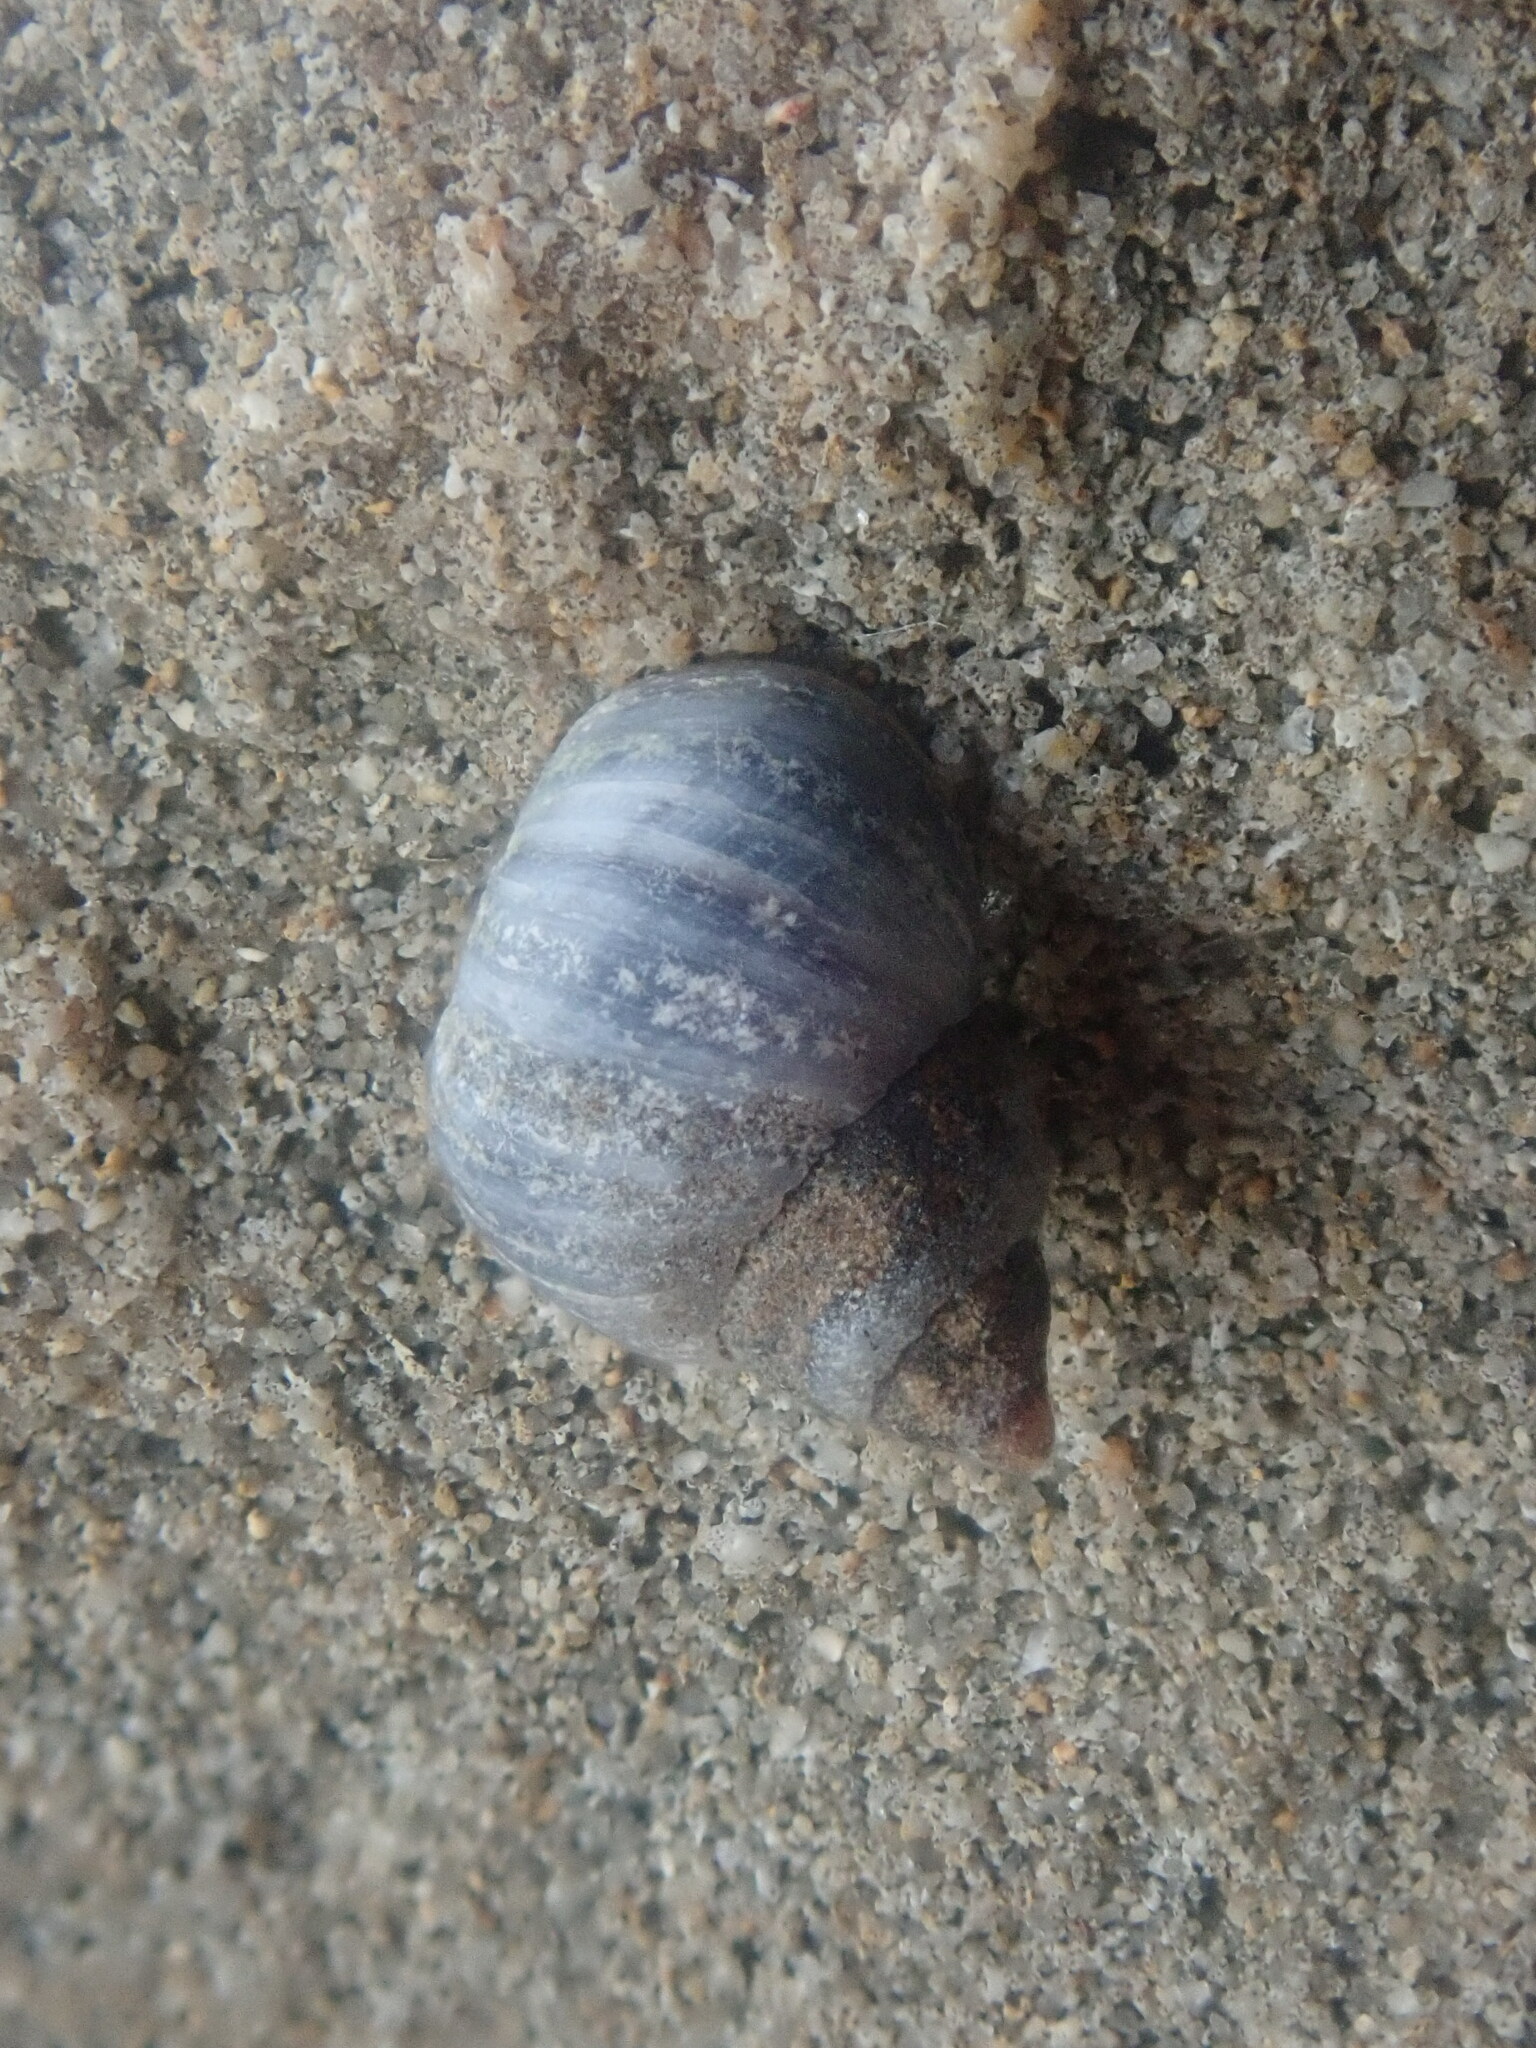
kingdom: Animalia
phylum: Mollusca
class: Gastropoda
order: Littorinimorpha
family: Littorinidae
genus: Austrolittorina
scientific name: Austrolittorina unifasciata
